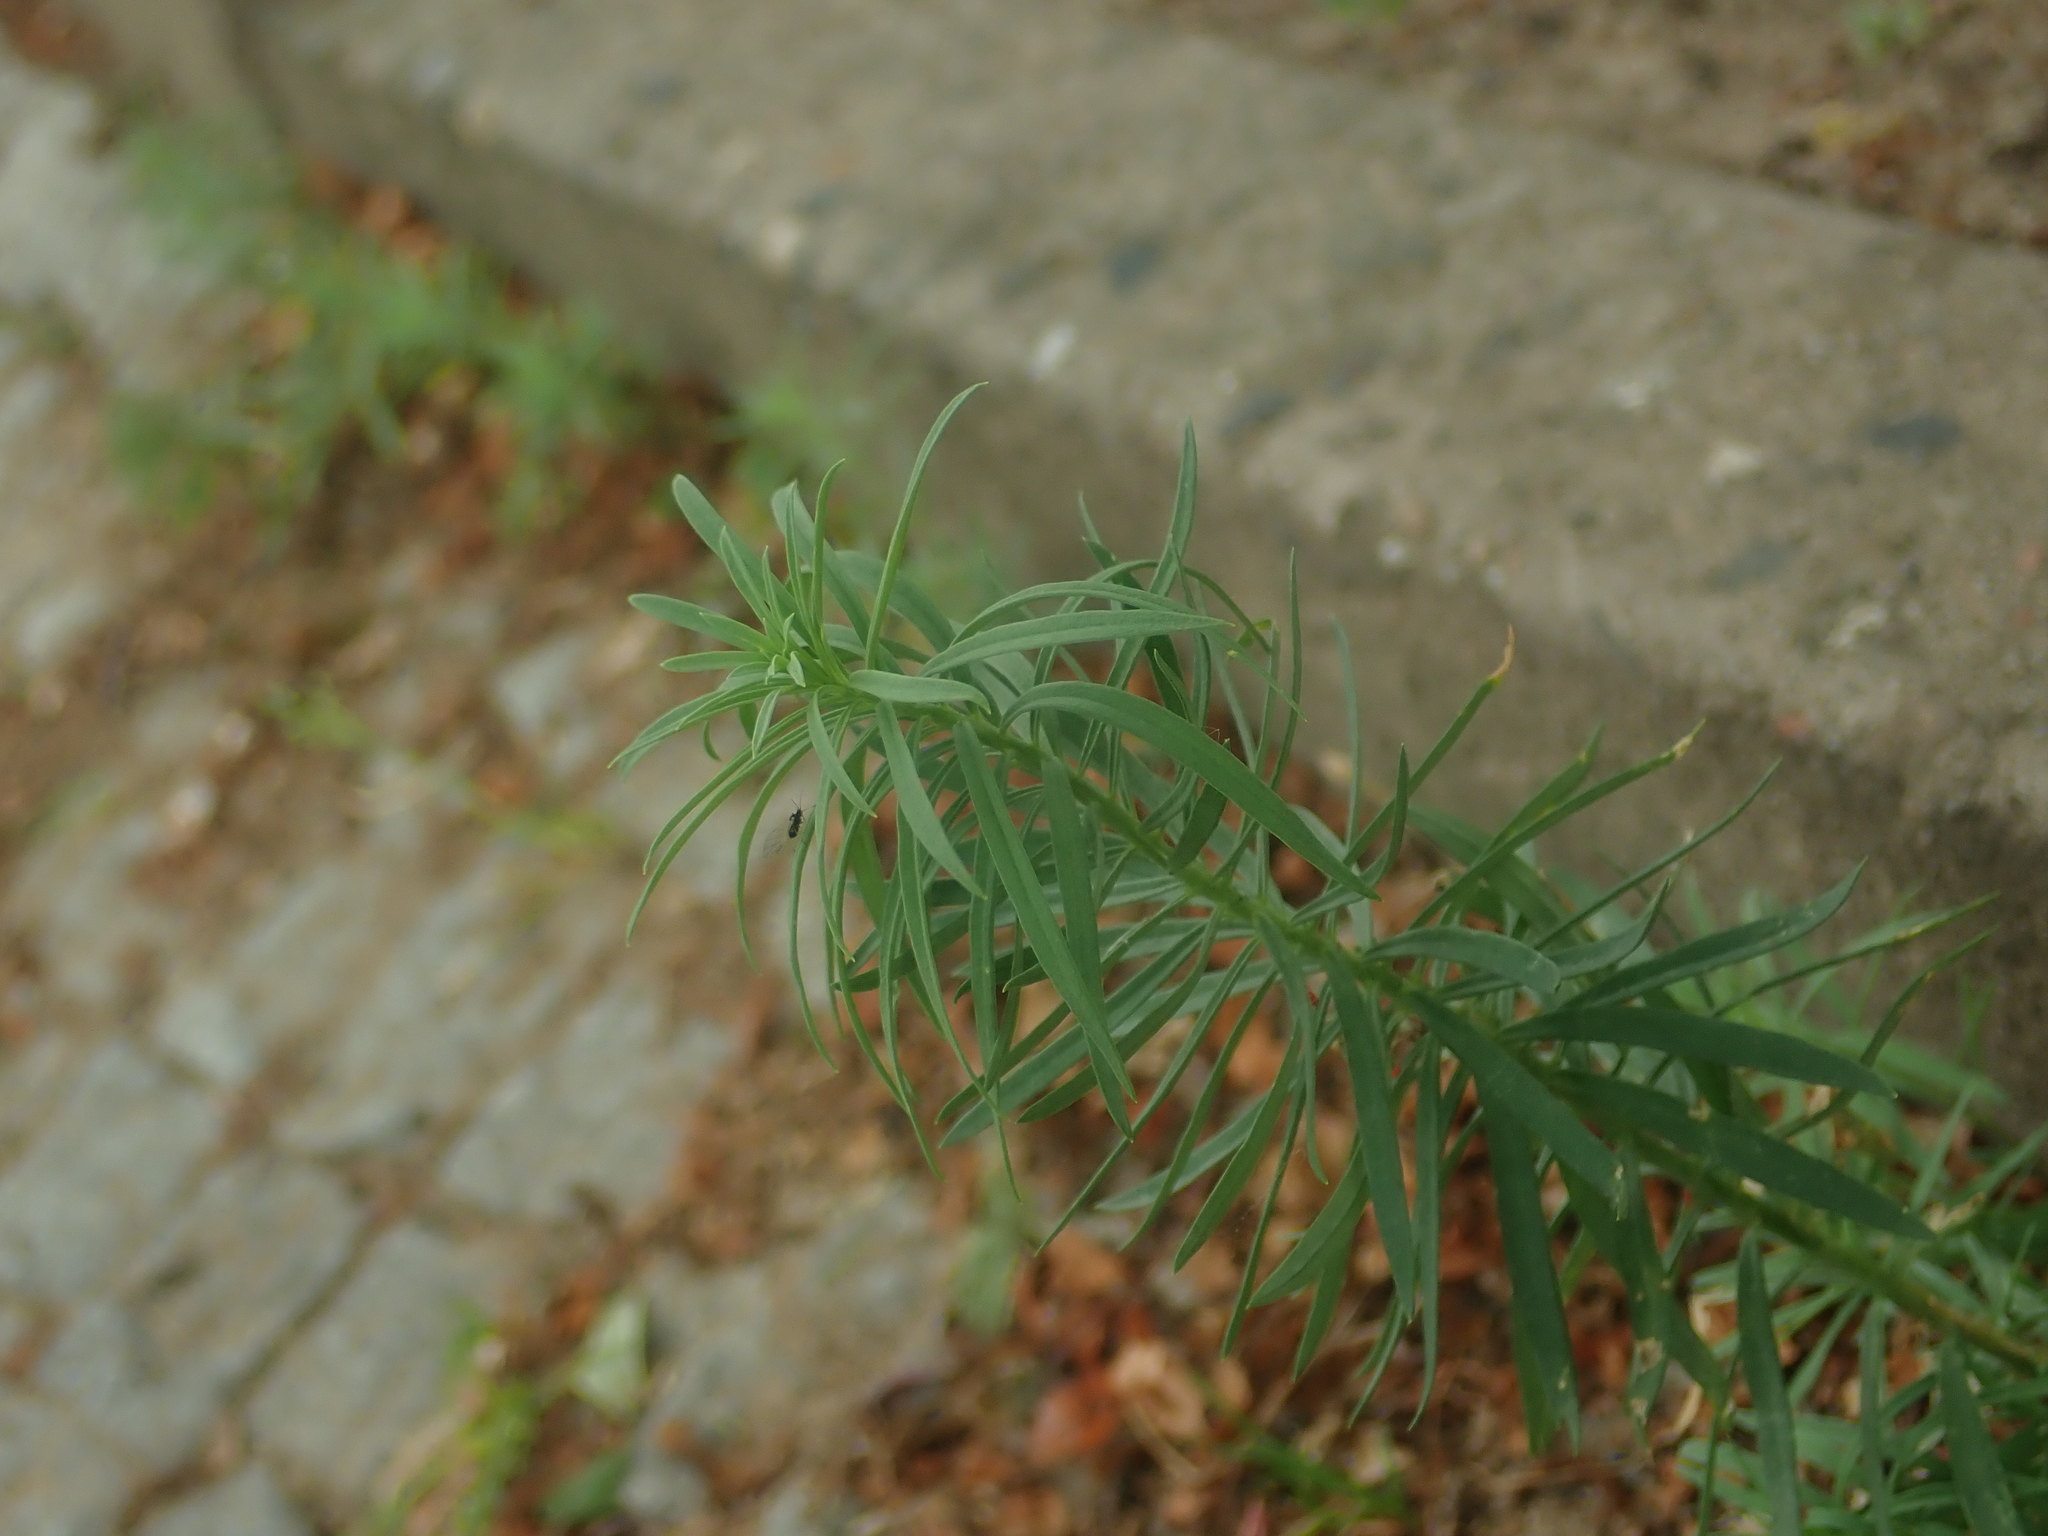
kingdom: Plantae
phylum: Tracheophyta
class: Magnoliopsida
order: Lamiales
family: Plantaginaceae
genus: Linaria
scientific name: Linaria vulgaris
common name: Butter and eggs
